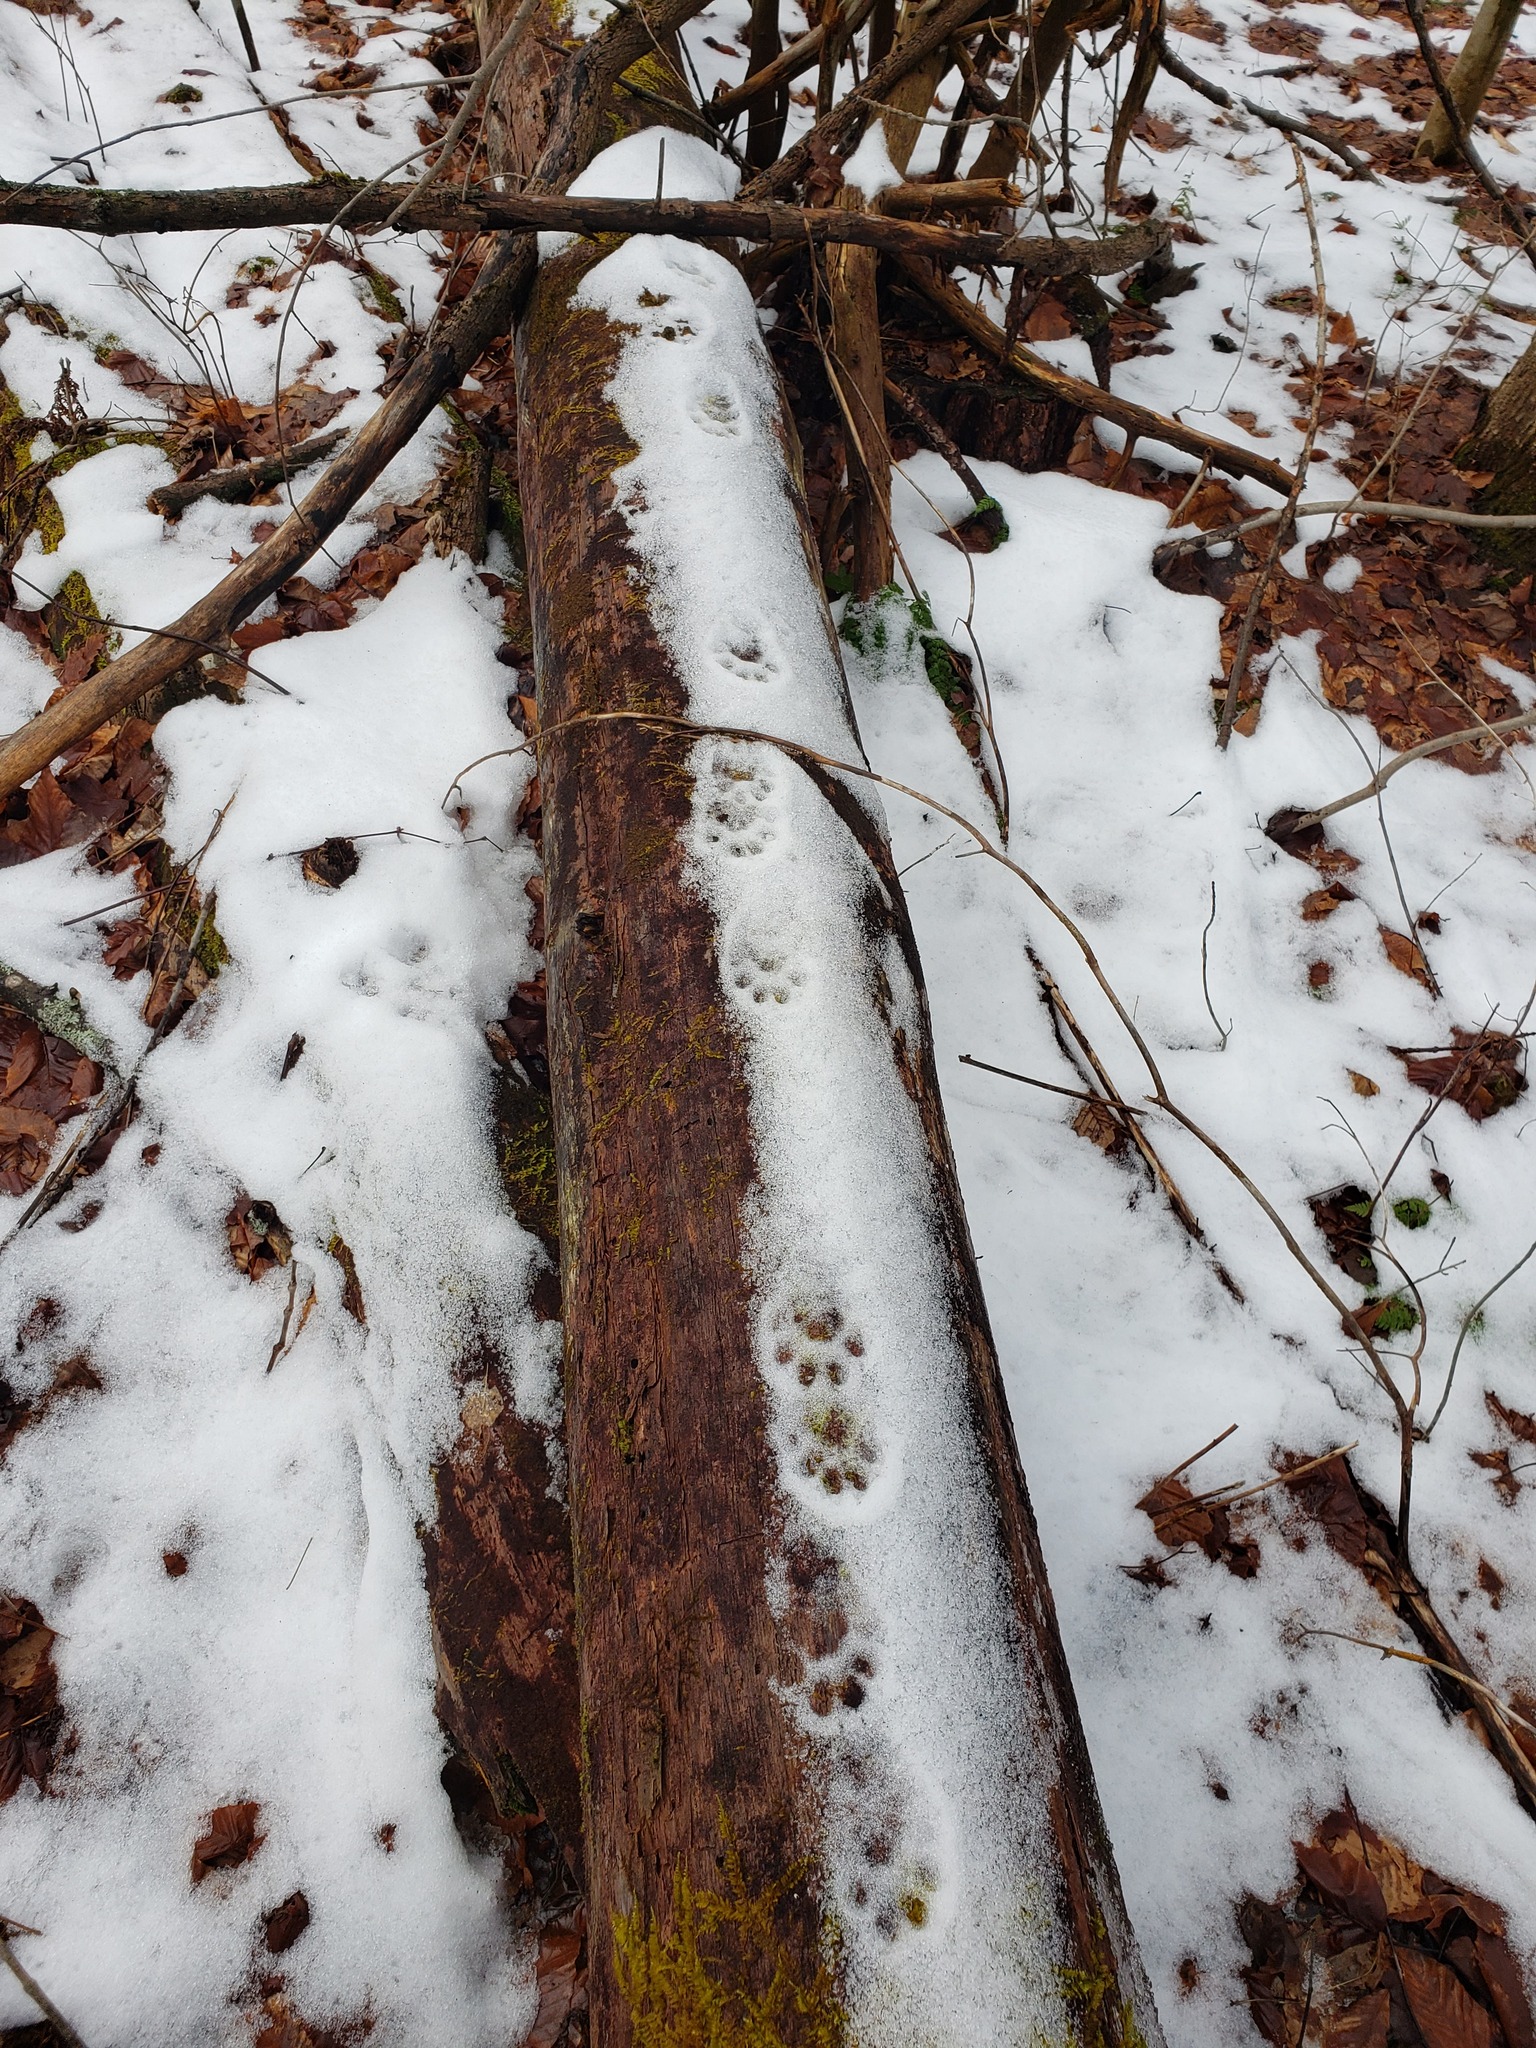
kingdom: Animalia
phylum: Chordata
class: Mammalia
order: Carnivora
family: Mustelidae
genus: Pekania
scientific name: Pekania pennanti
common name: Fisher
